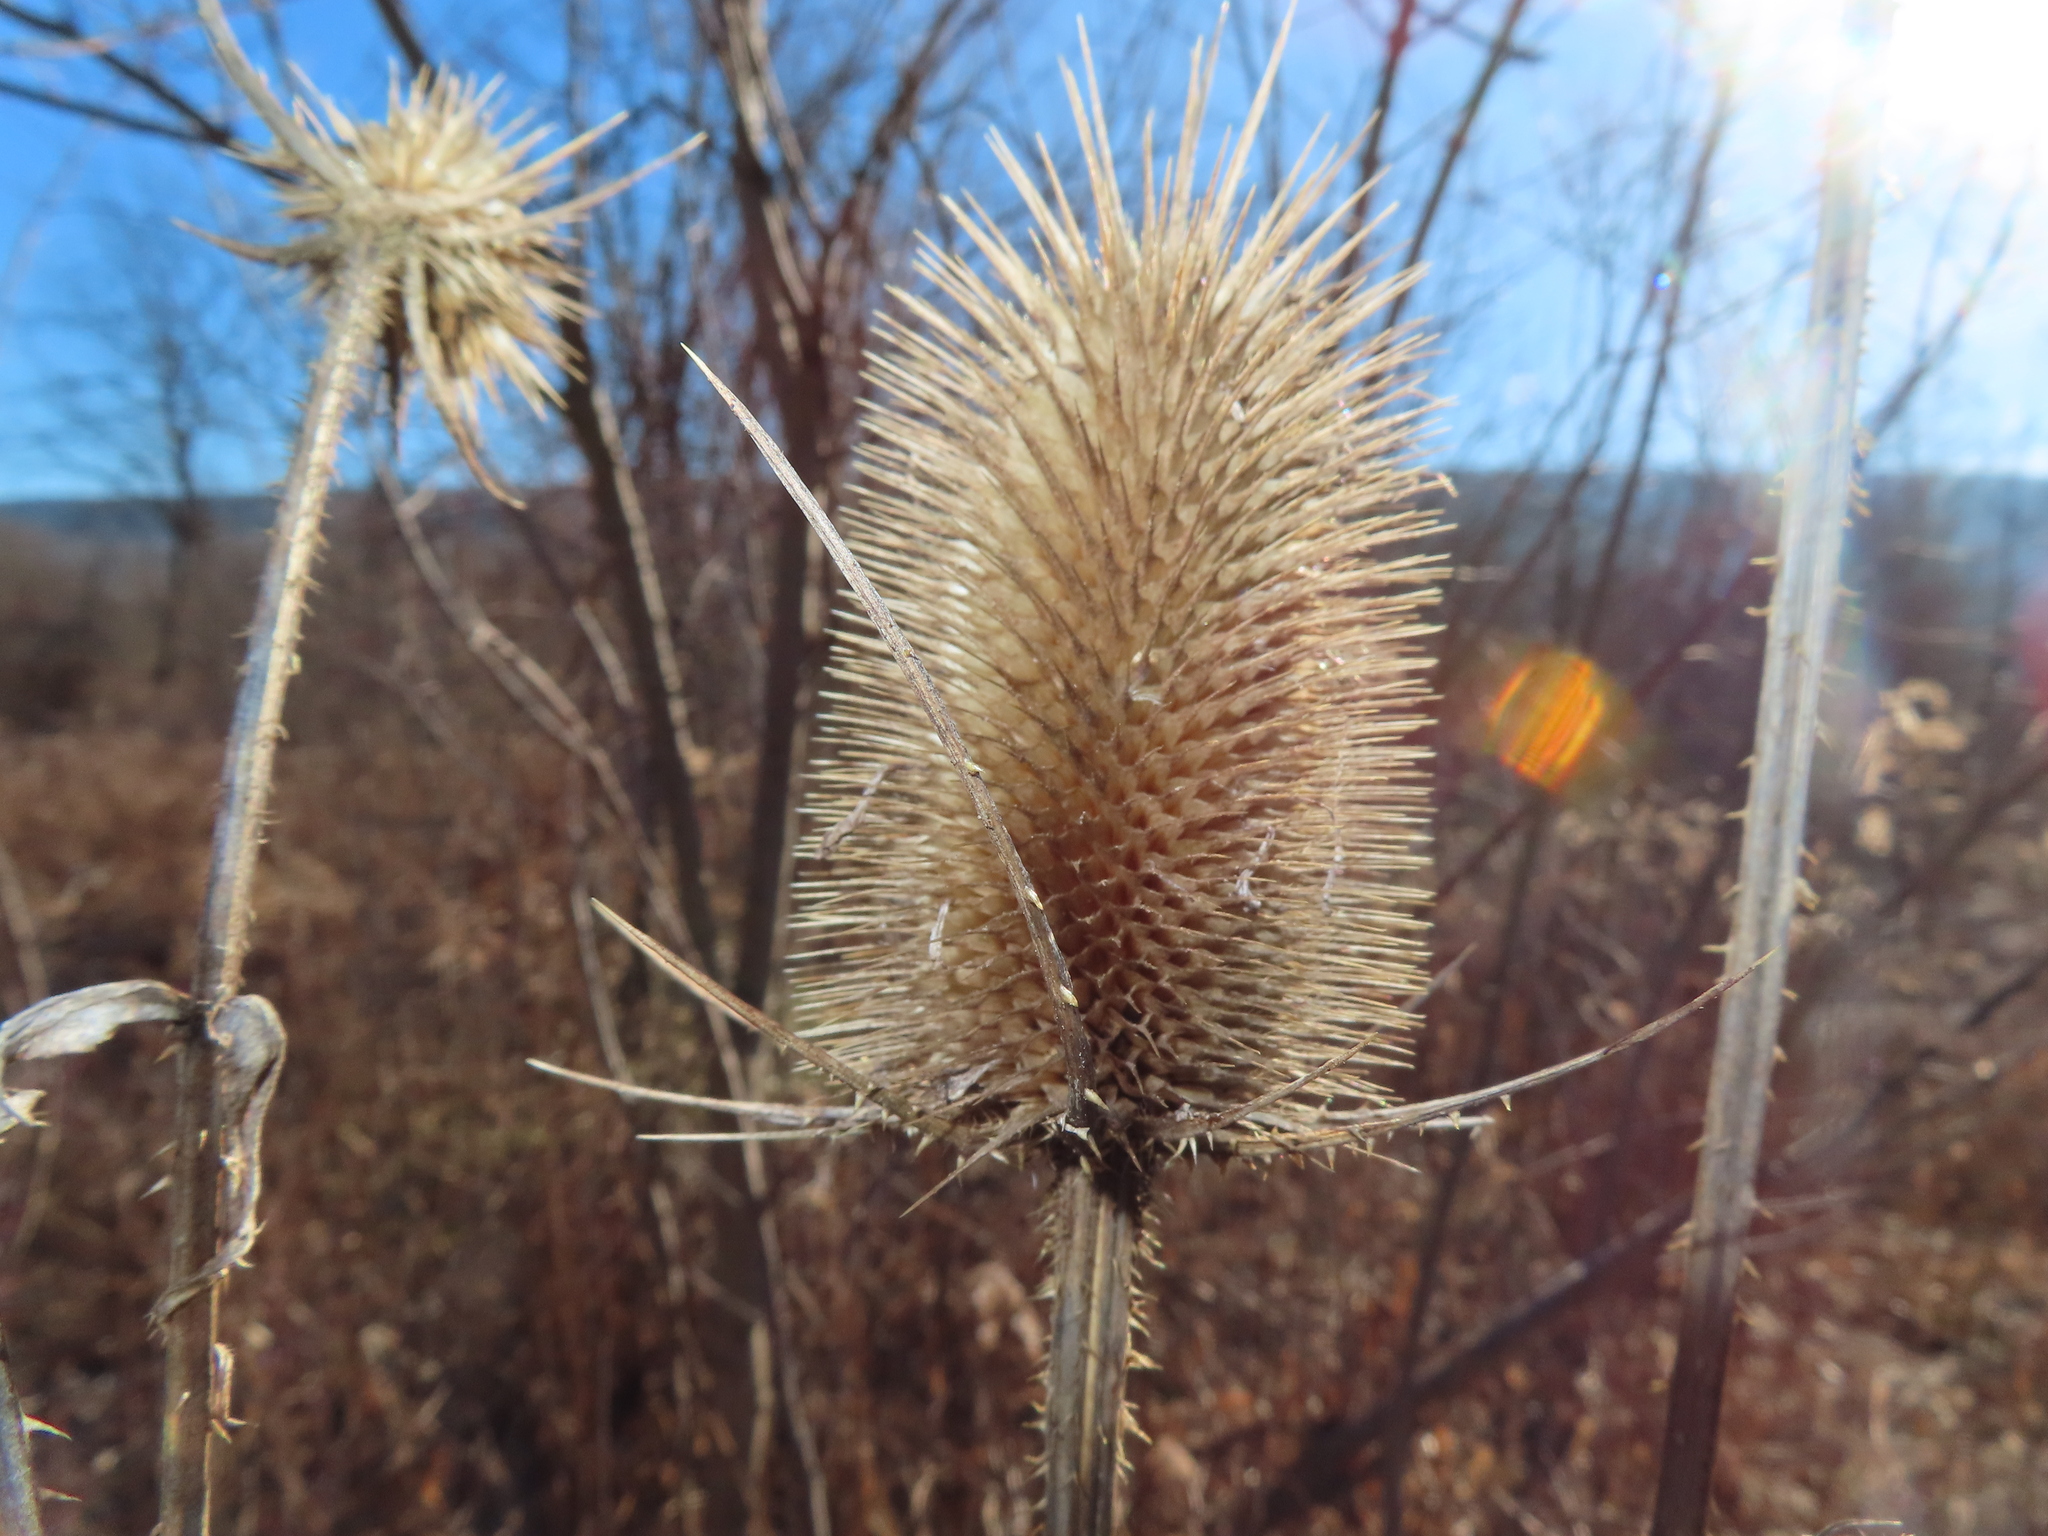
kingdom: Plantae
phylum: Tracheophyta
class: Magnoliopsida
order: Dipsacales
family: Caprifoliaceae
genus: Dipsacus
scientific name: Dipsacus fullonum
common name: Teasel
